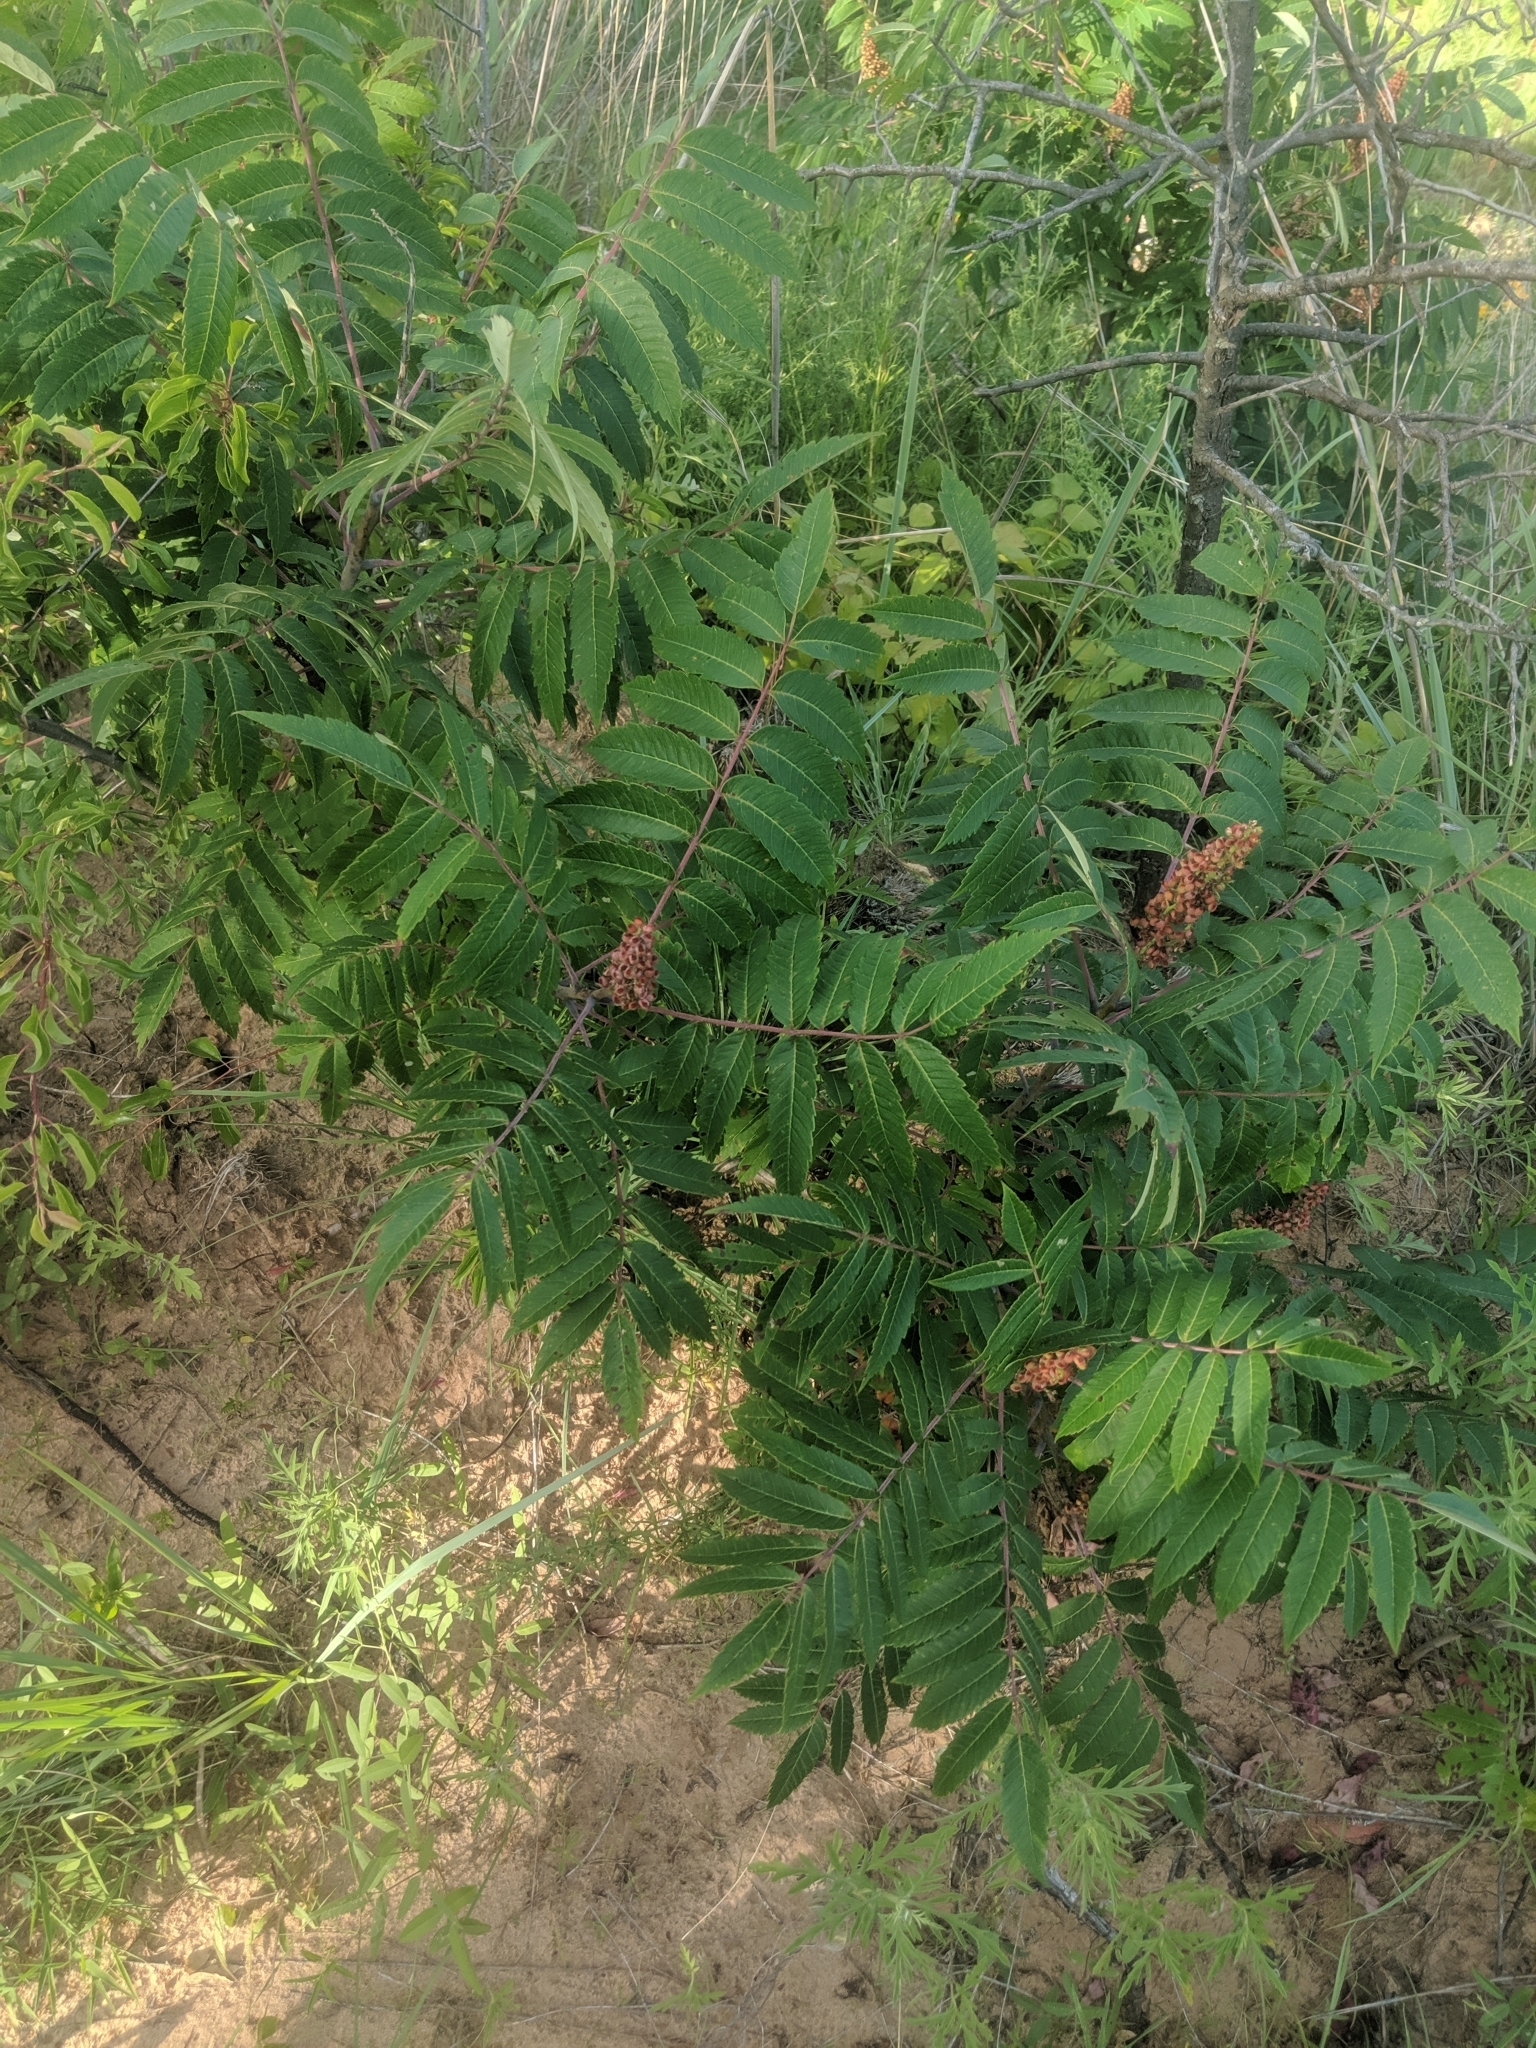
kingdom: Plantae
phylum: Tracheophyta
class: Magnoliopsida
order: Sapindales
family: Anacardiaceae
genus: Rhus
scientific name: Rhus glabra
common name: Scarlet sumac
